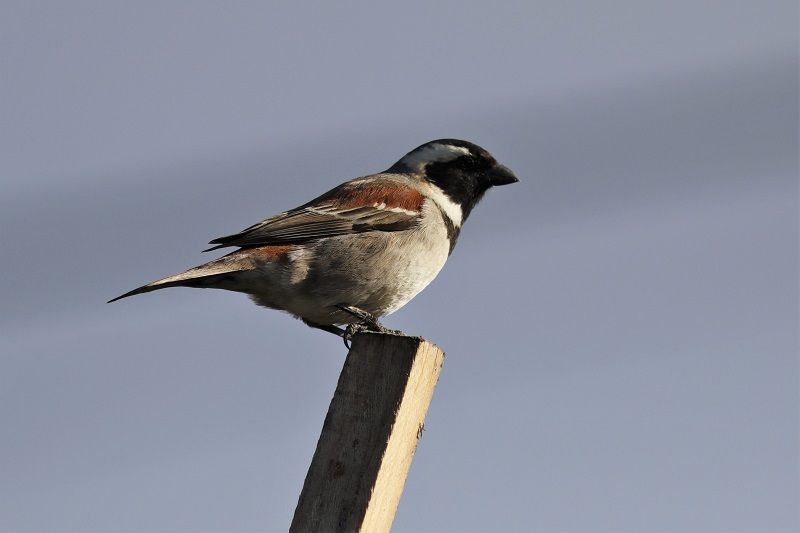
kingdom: Animalia
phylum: Chordata
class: Aves
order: Passeriformes
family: Passeridae
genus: Passer
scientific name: Passer melanurus
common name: Cape sparrow
